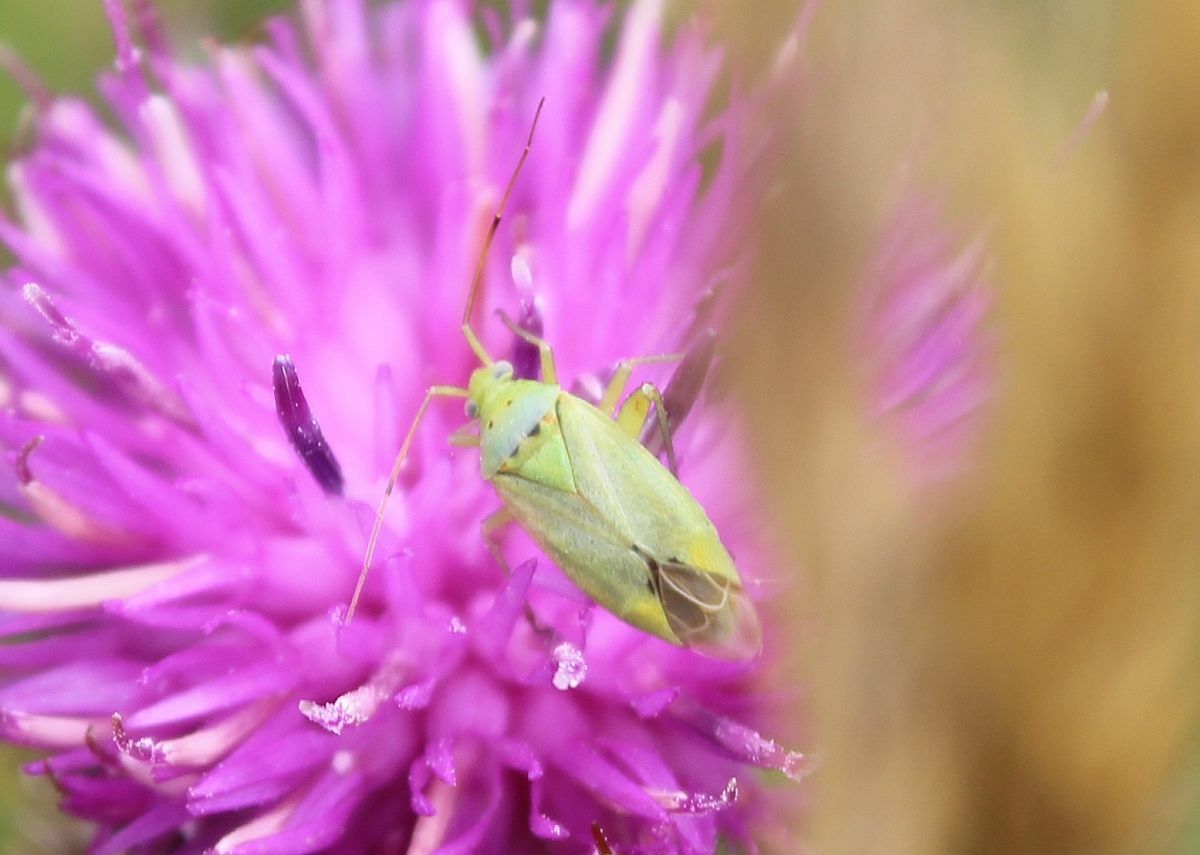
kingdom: Animalia
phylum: Arthropoda
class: Insecta
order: Hemiptera
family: Miridae
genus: Closterotomus
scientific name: Closterotomus norvegicus
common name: Plant bug
